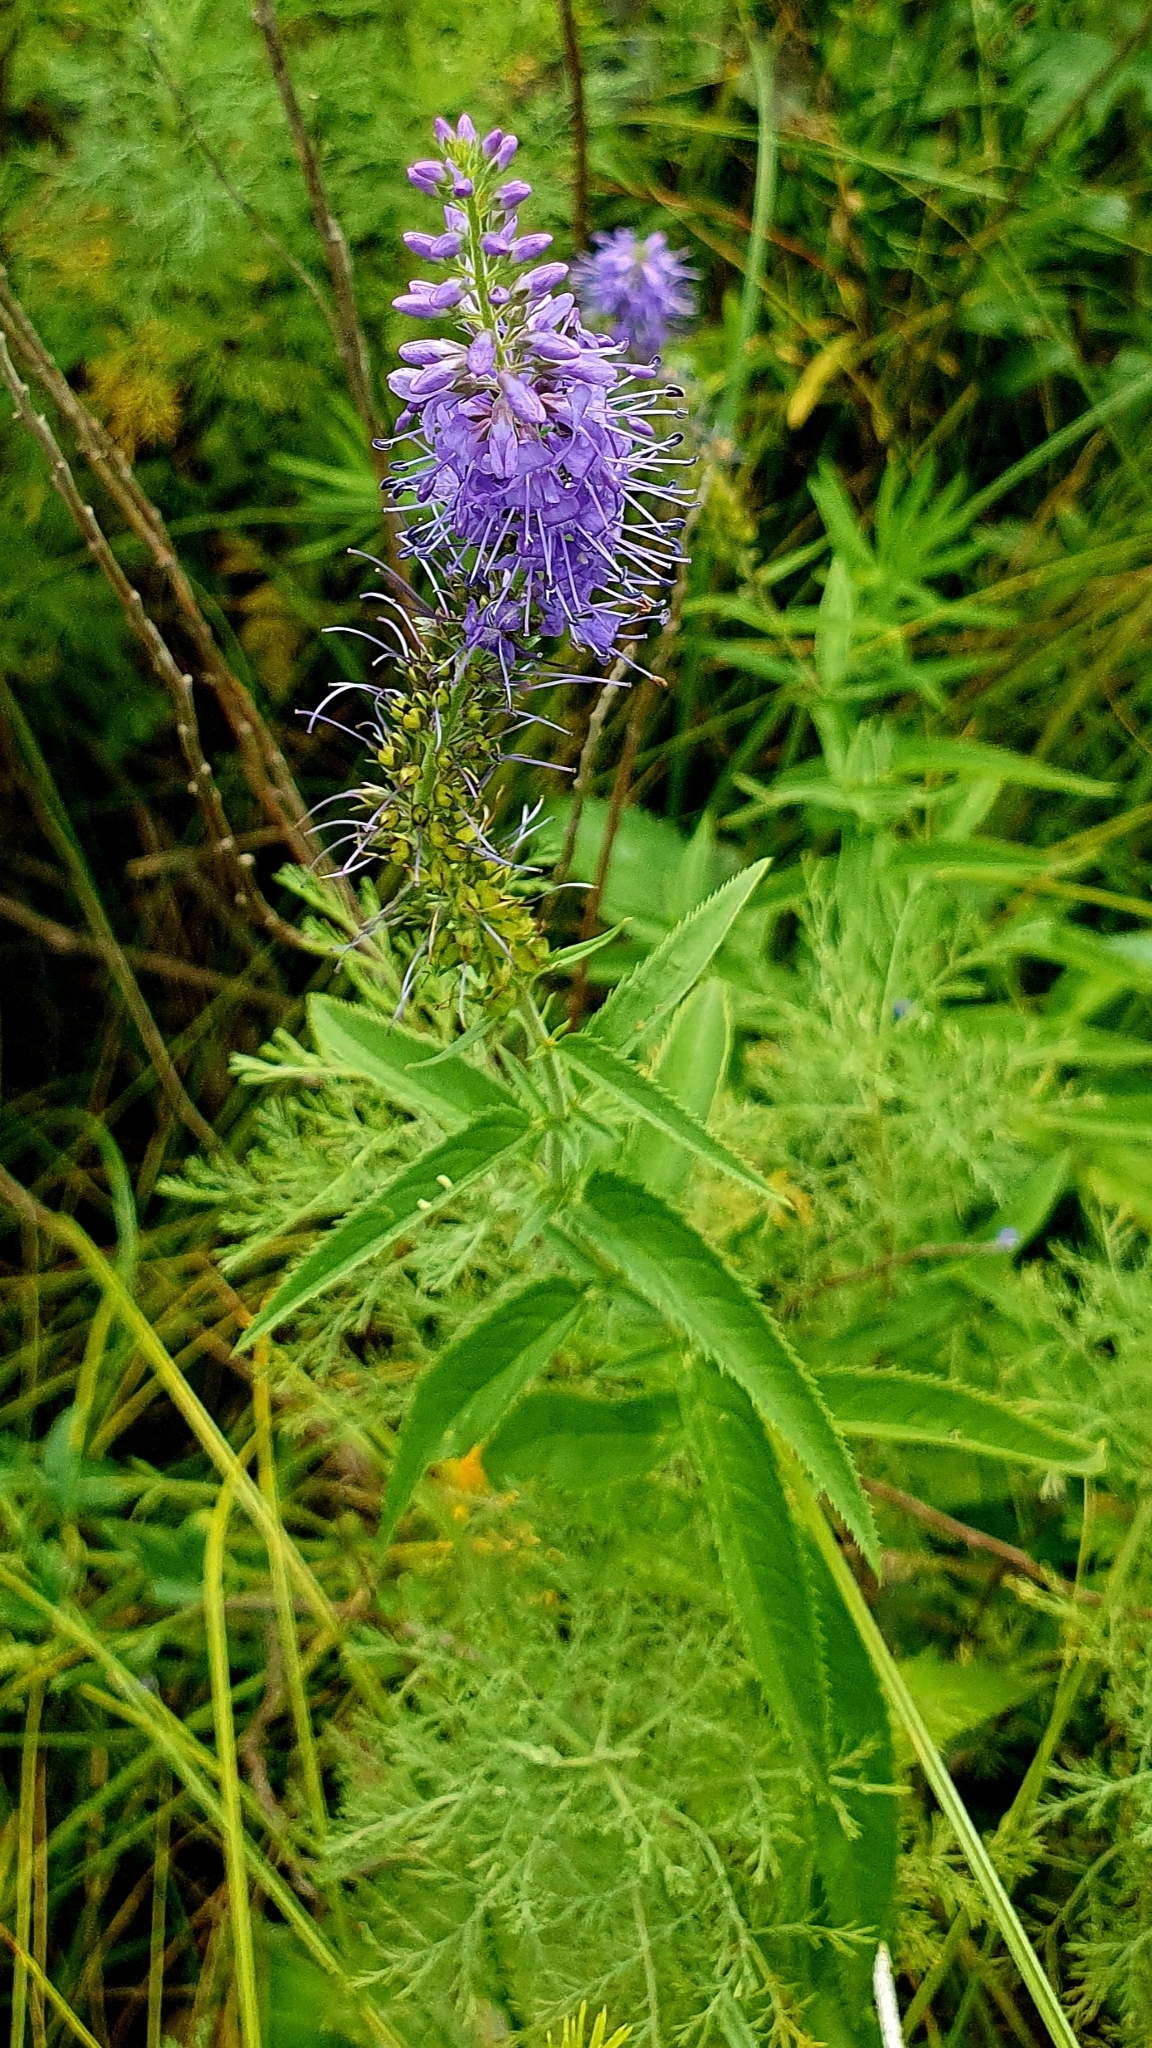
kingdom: Plantae
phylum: Tracheophyta
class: Magnoliopsida
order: Lamiales
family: Plantaginaceae
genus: Veronica
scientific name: Veronica longifolia
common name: Garden speedwell
